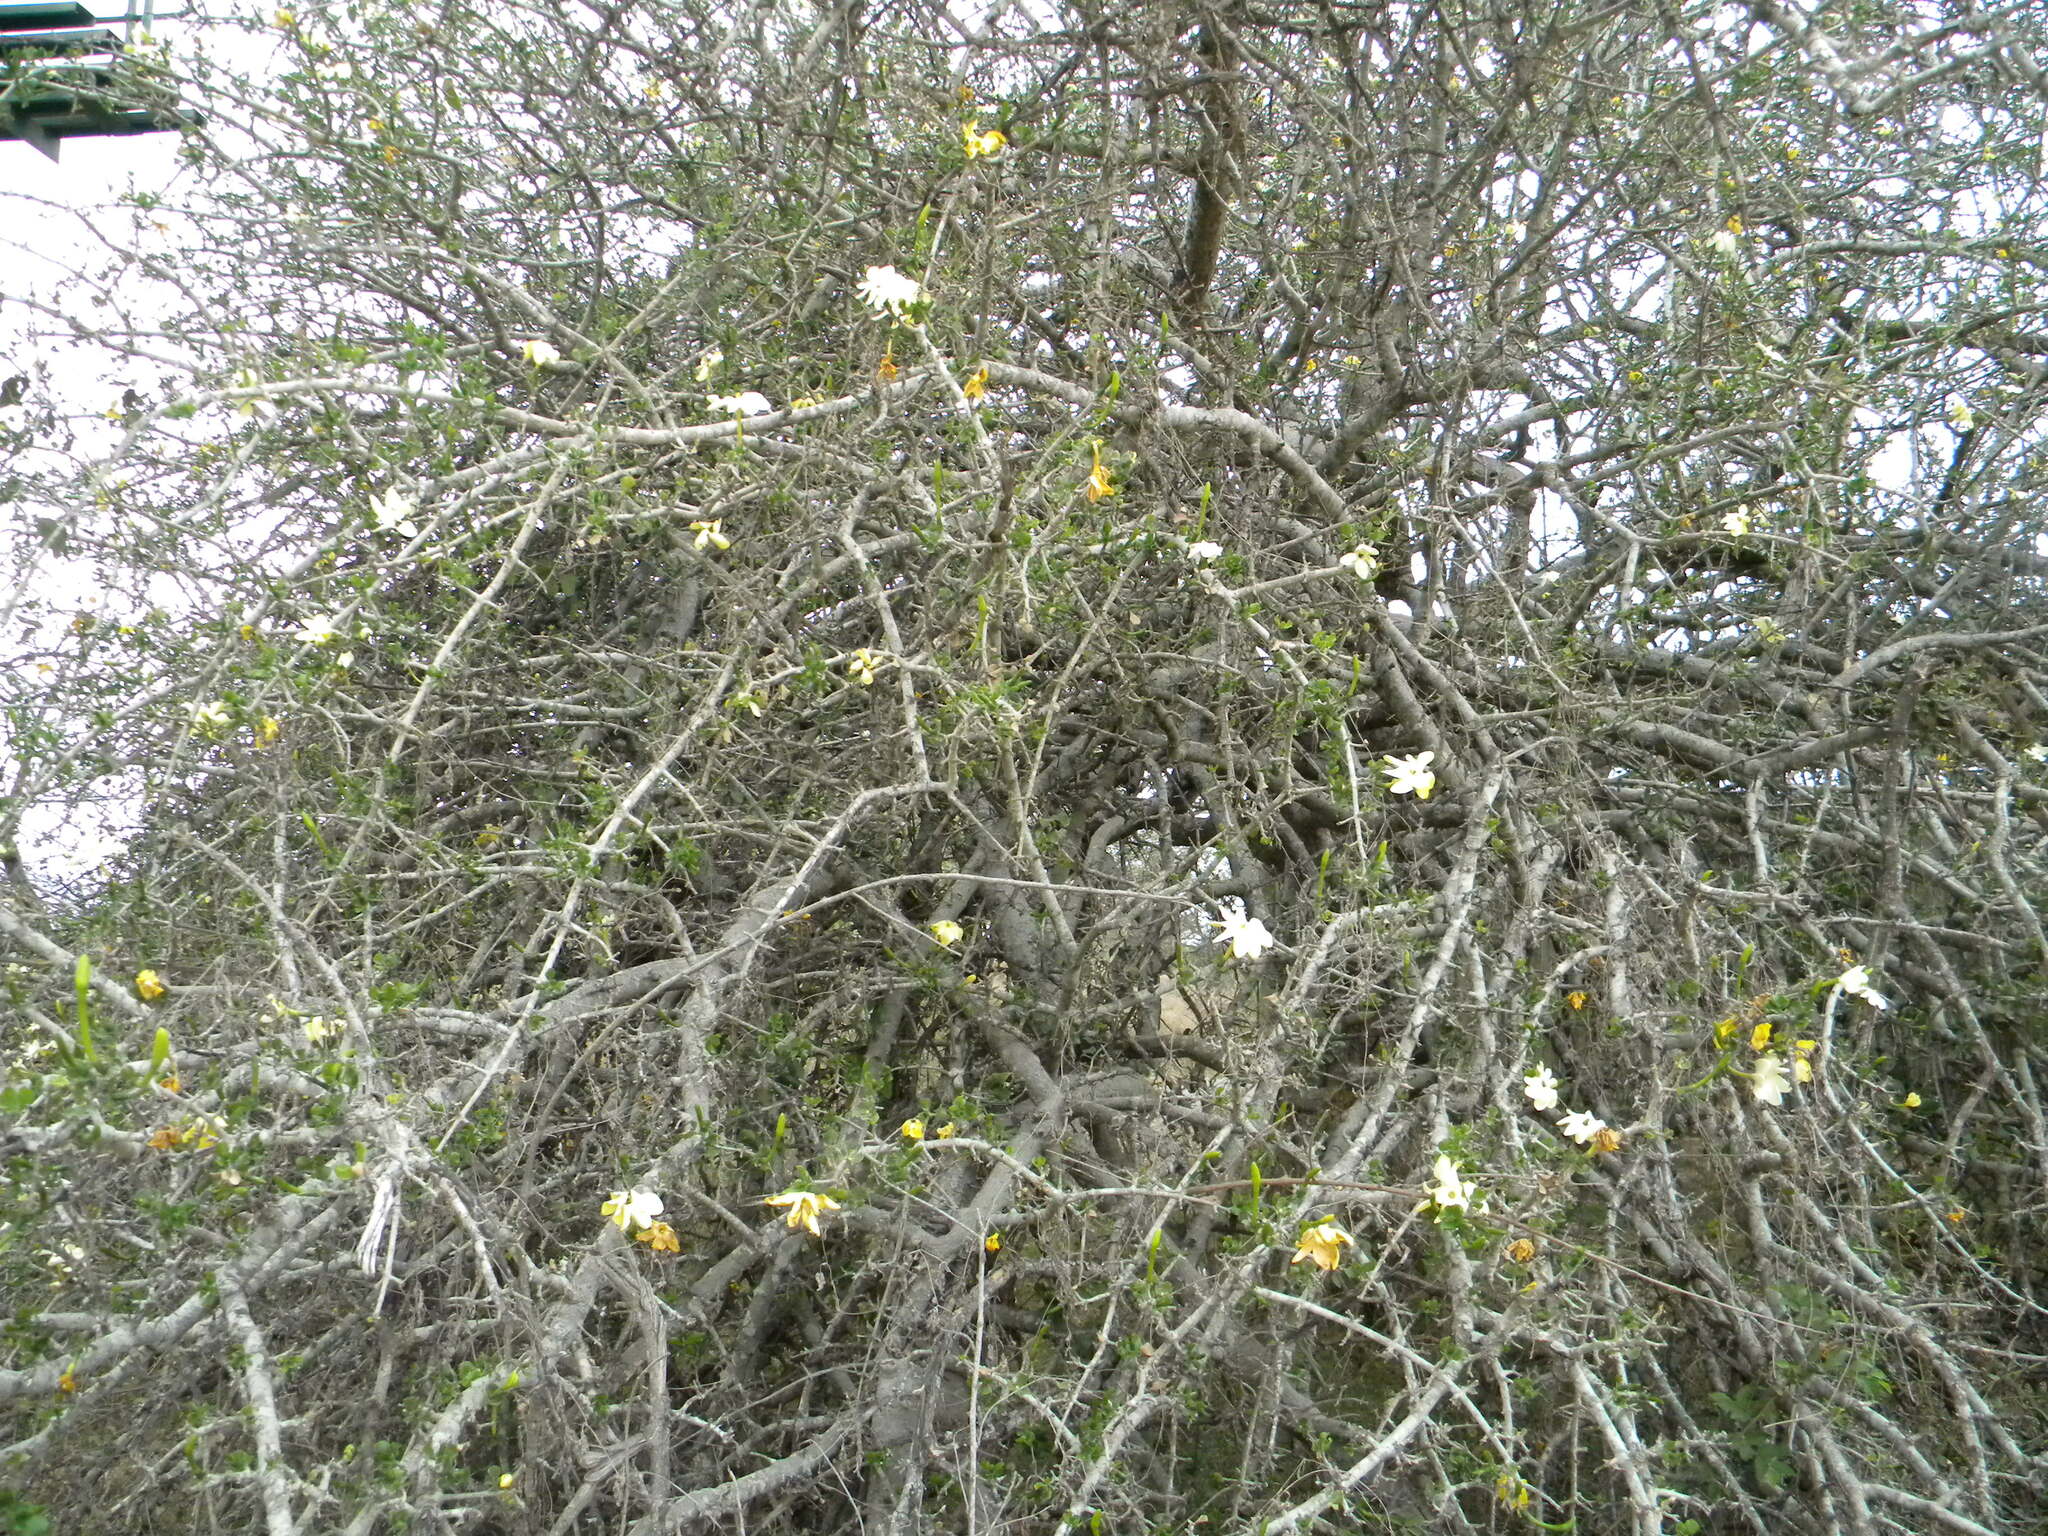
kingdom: Plantae
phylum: Tracheophyta
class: Magnoliopsida
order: Gentianales
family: Rubiaceae
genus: Gardenia
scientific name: Gardenia volkensii
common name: Common gardenia
